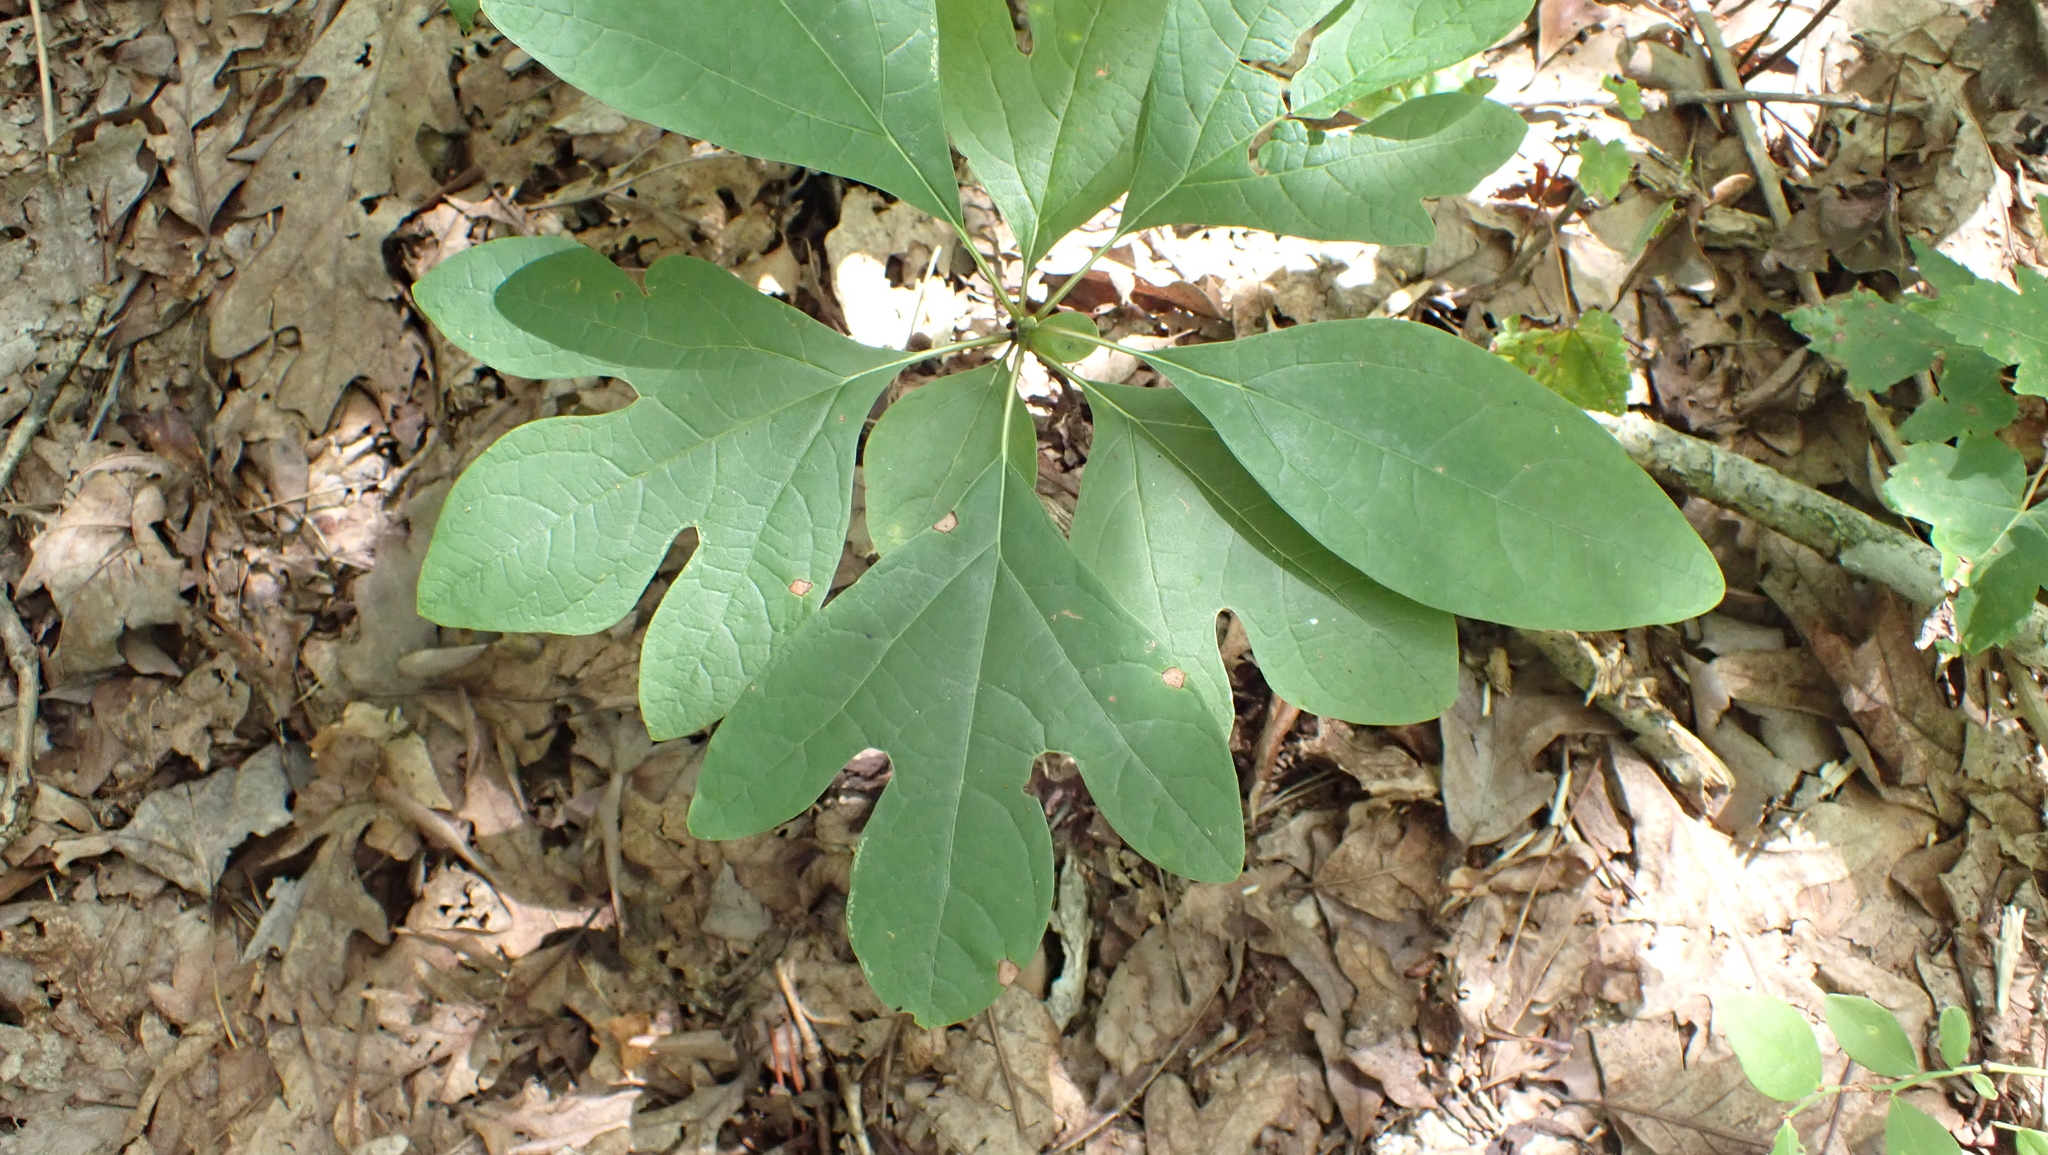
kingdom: Plantae
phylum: Tracheophyta
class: Magnoliopsida
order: Laurales
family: Lauraceae
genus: Sassafras
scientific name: Sassafras albidum
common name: Sassafras
